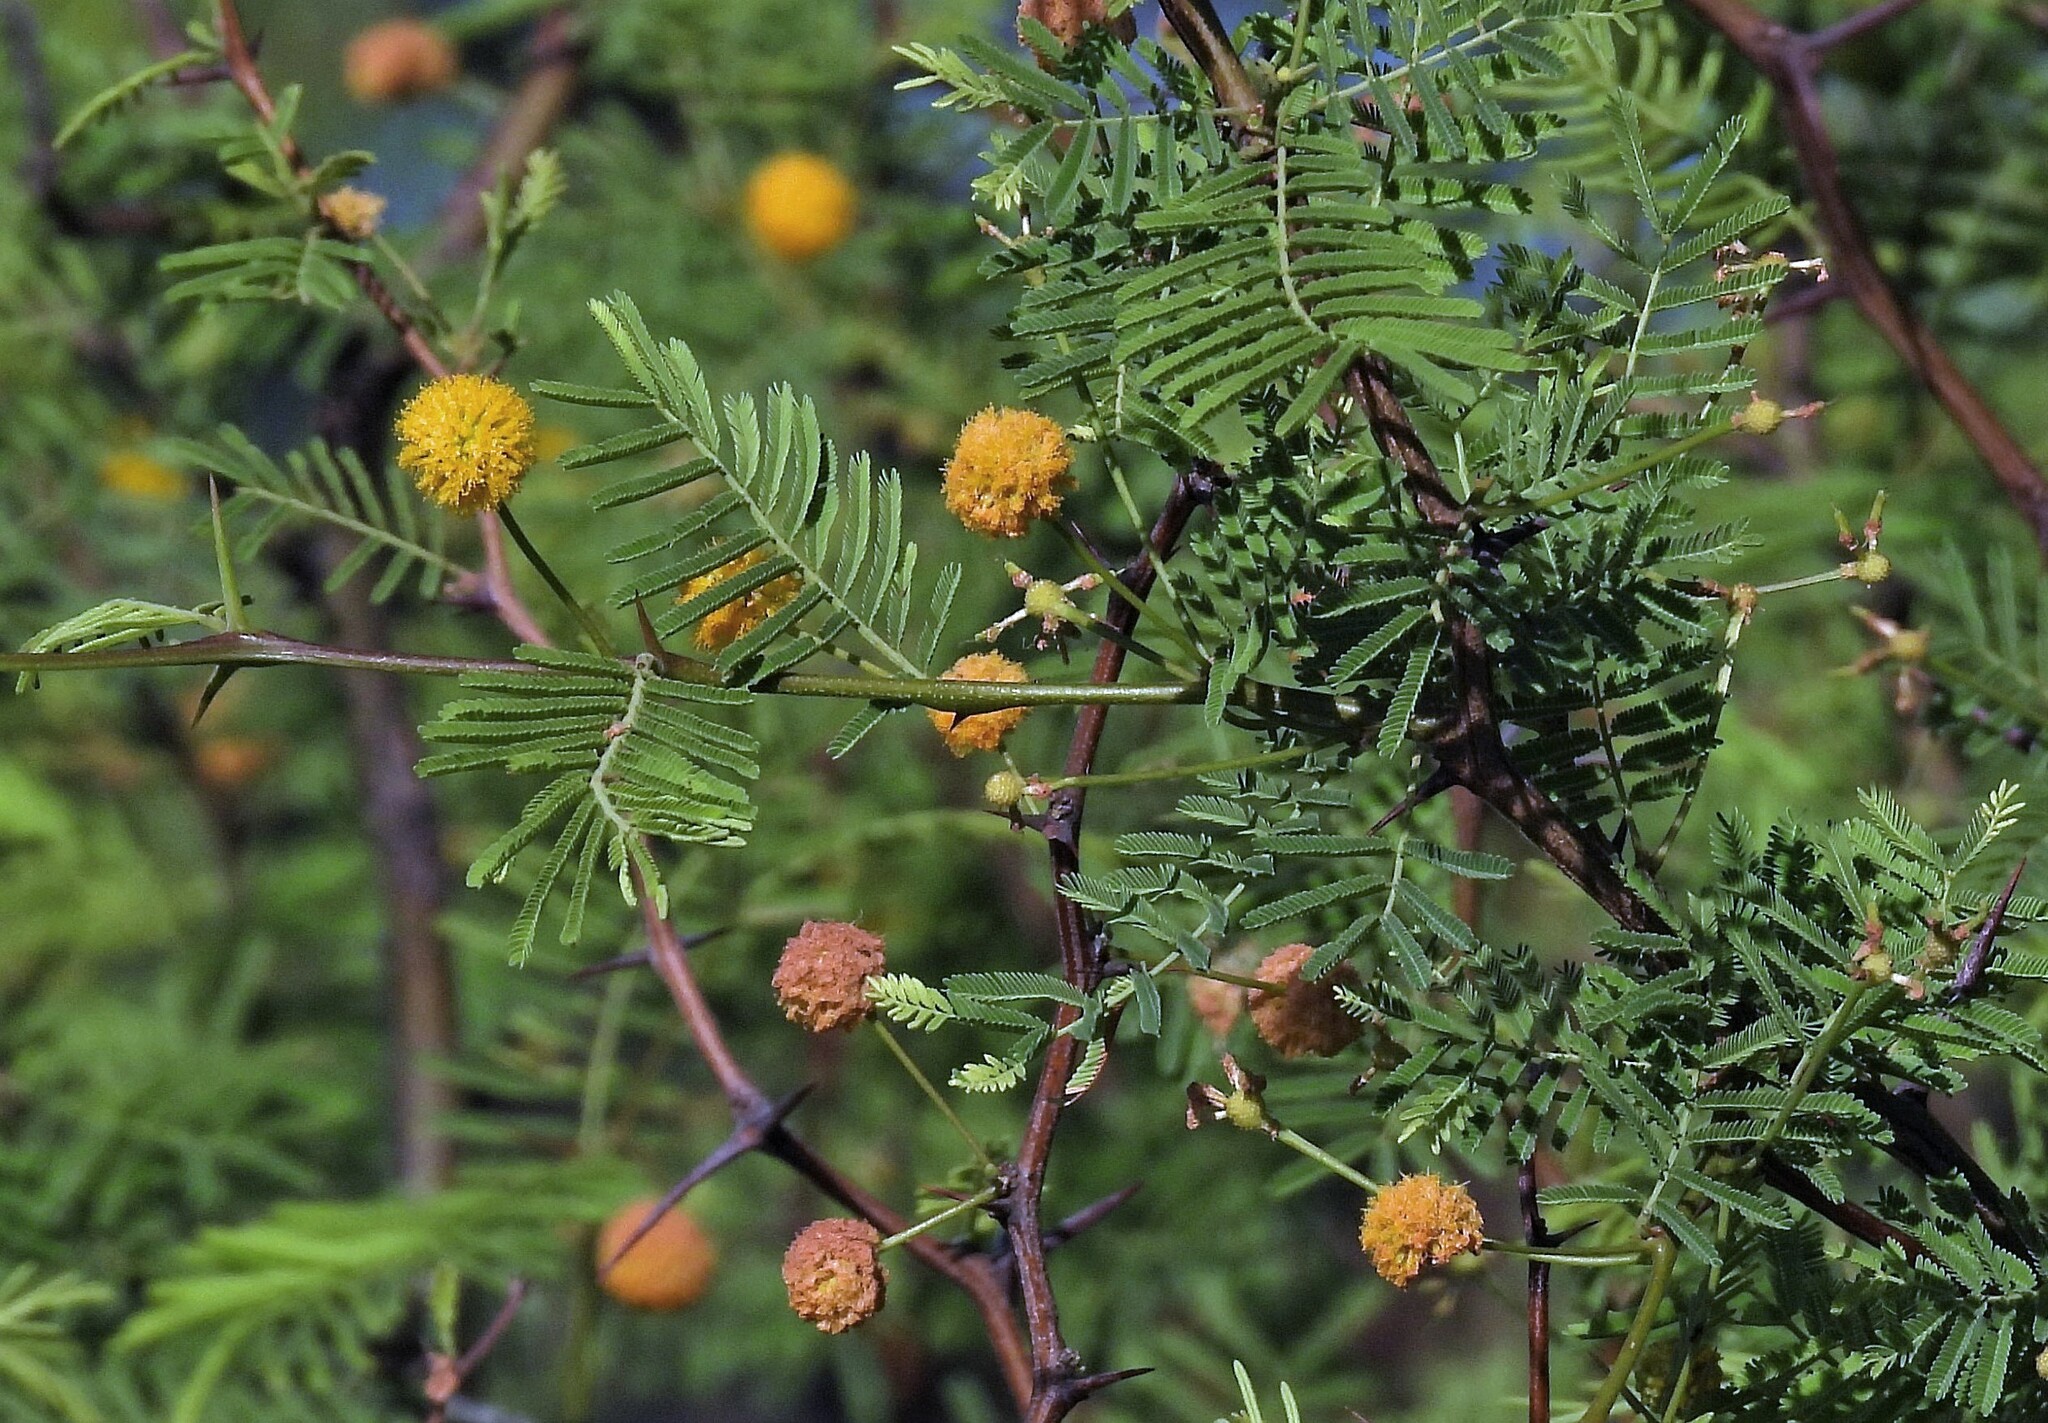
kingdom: Plantae
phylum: Tracheophyta
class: Magnoliopsida
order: Fabales
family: Fabaceae
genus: Vachellia
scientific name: Vachellia aroma
